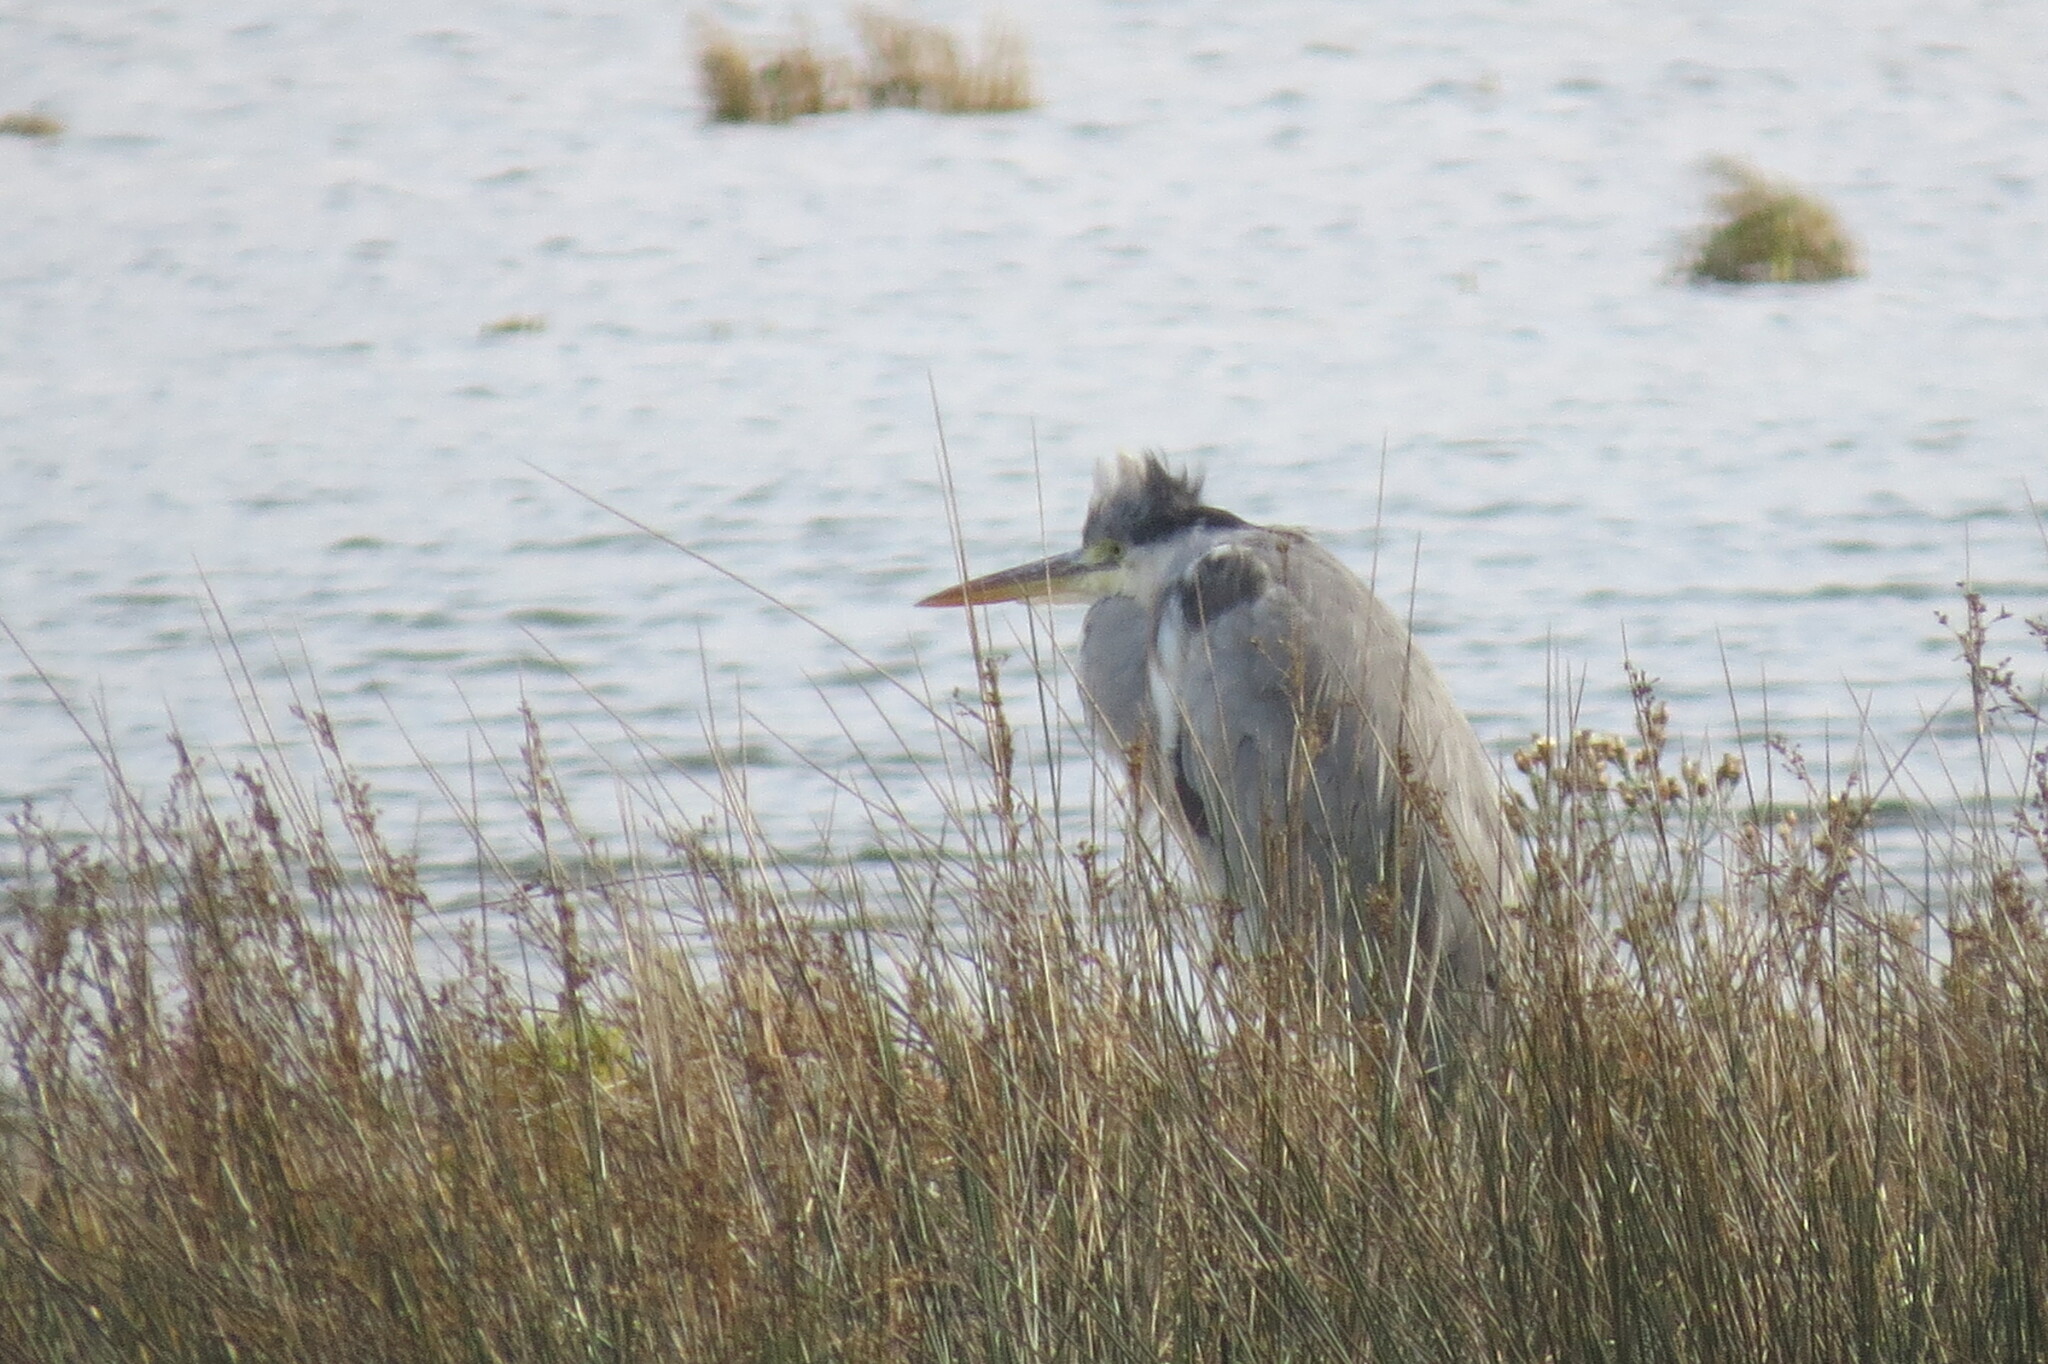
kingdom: Animalia
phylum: Chordata
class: Aves
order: Pelecaniformes
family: Ardeidae
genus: Ardea
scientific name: Ardea cinerea
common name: Grey heron
